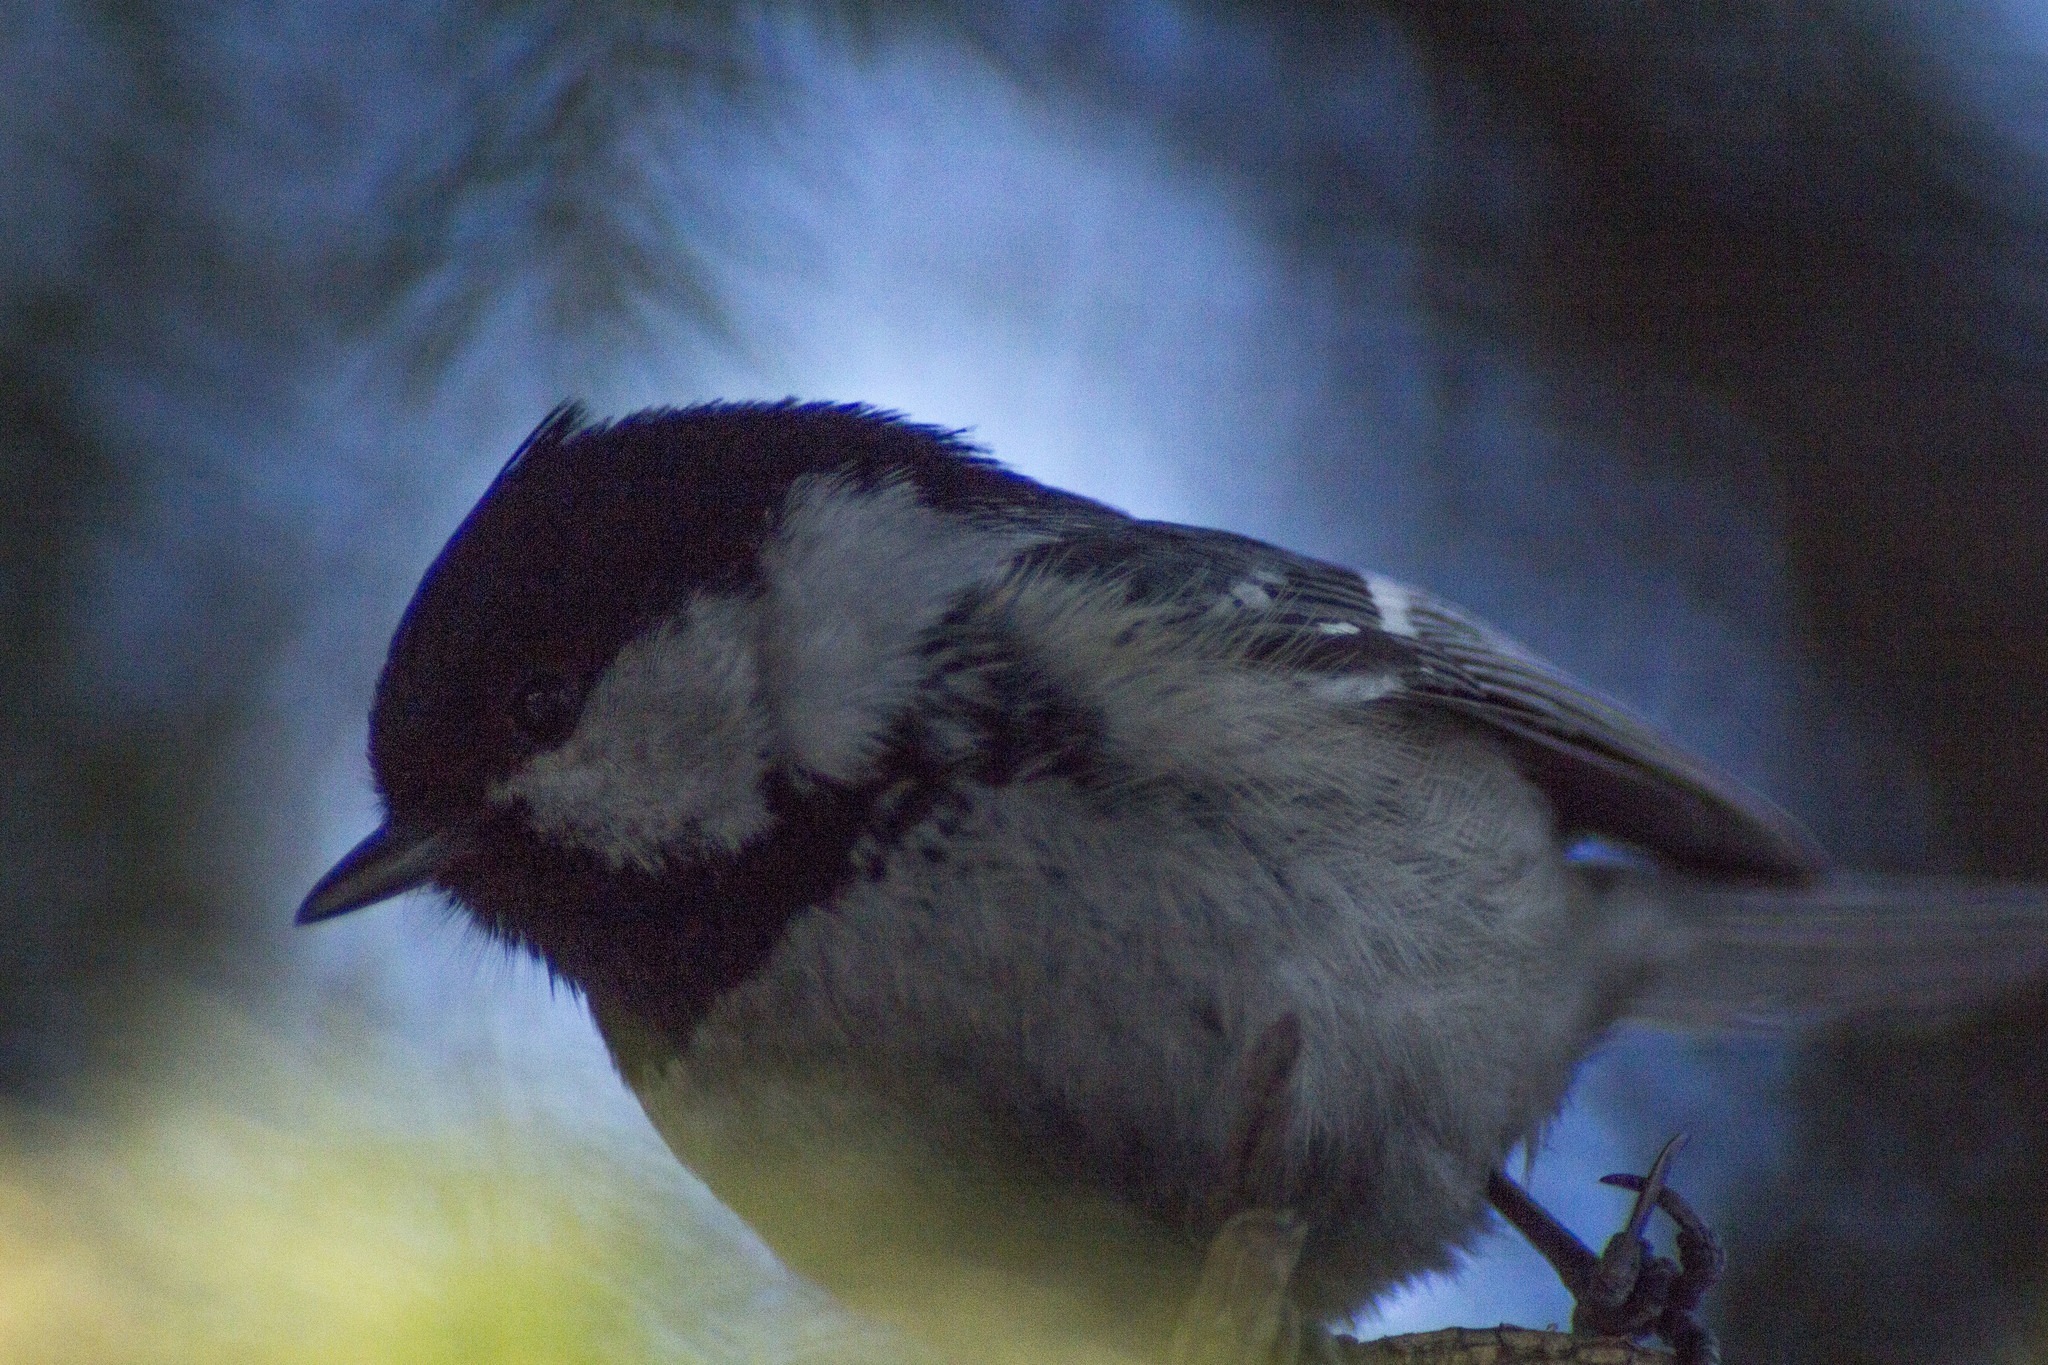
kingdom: Animalia
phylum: Chordata
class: Aves
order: Passeriformes
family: Paridae
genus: Periparus
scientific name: Periparus ater
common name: Coal tit
